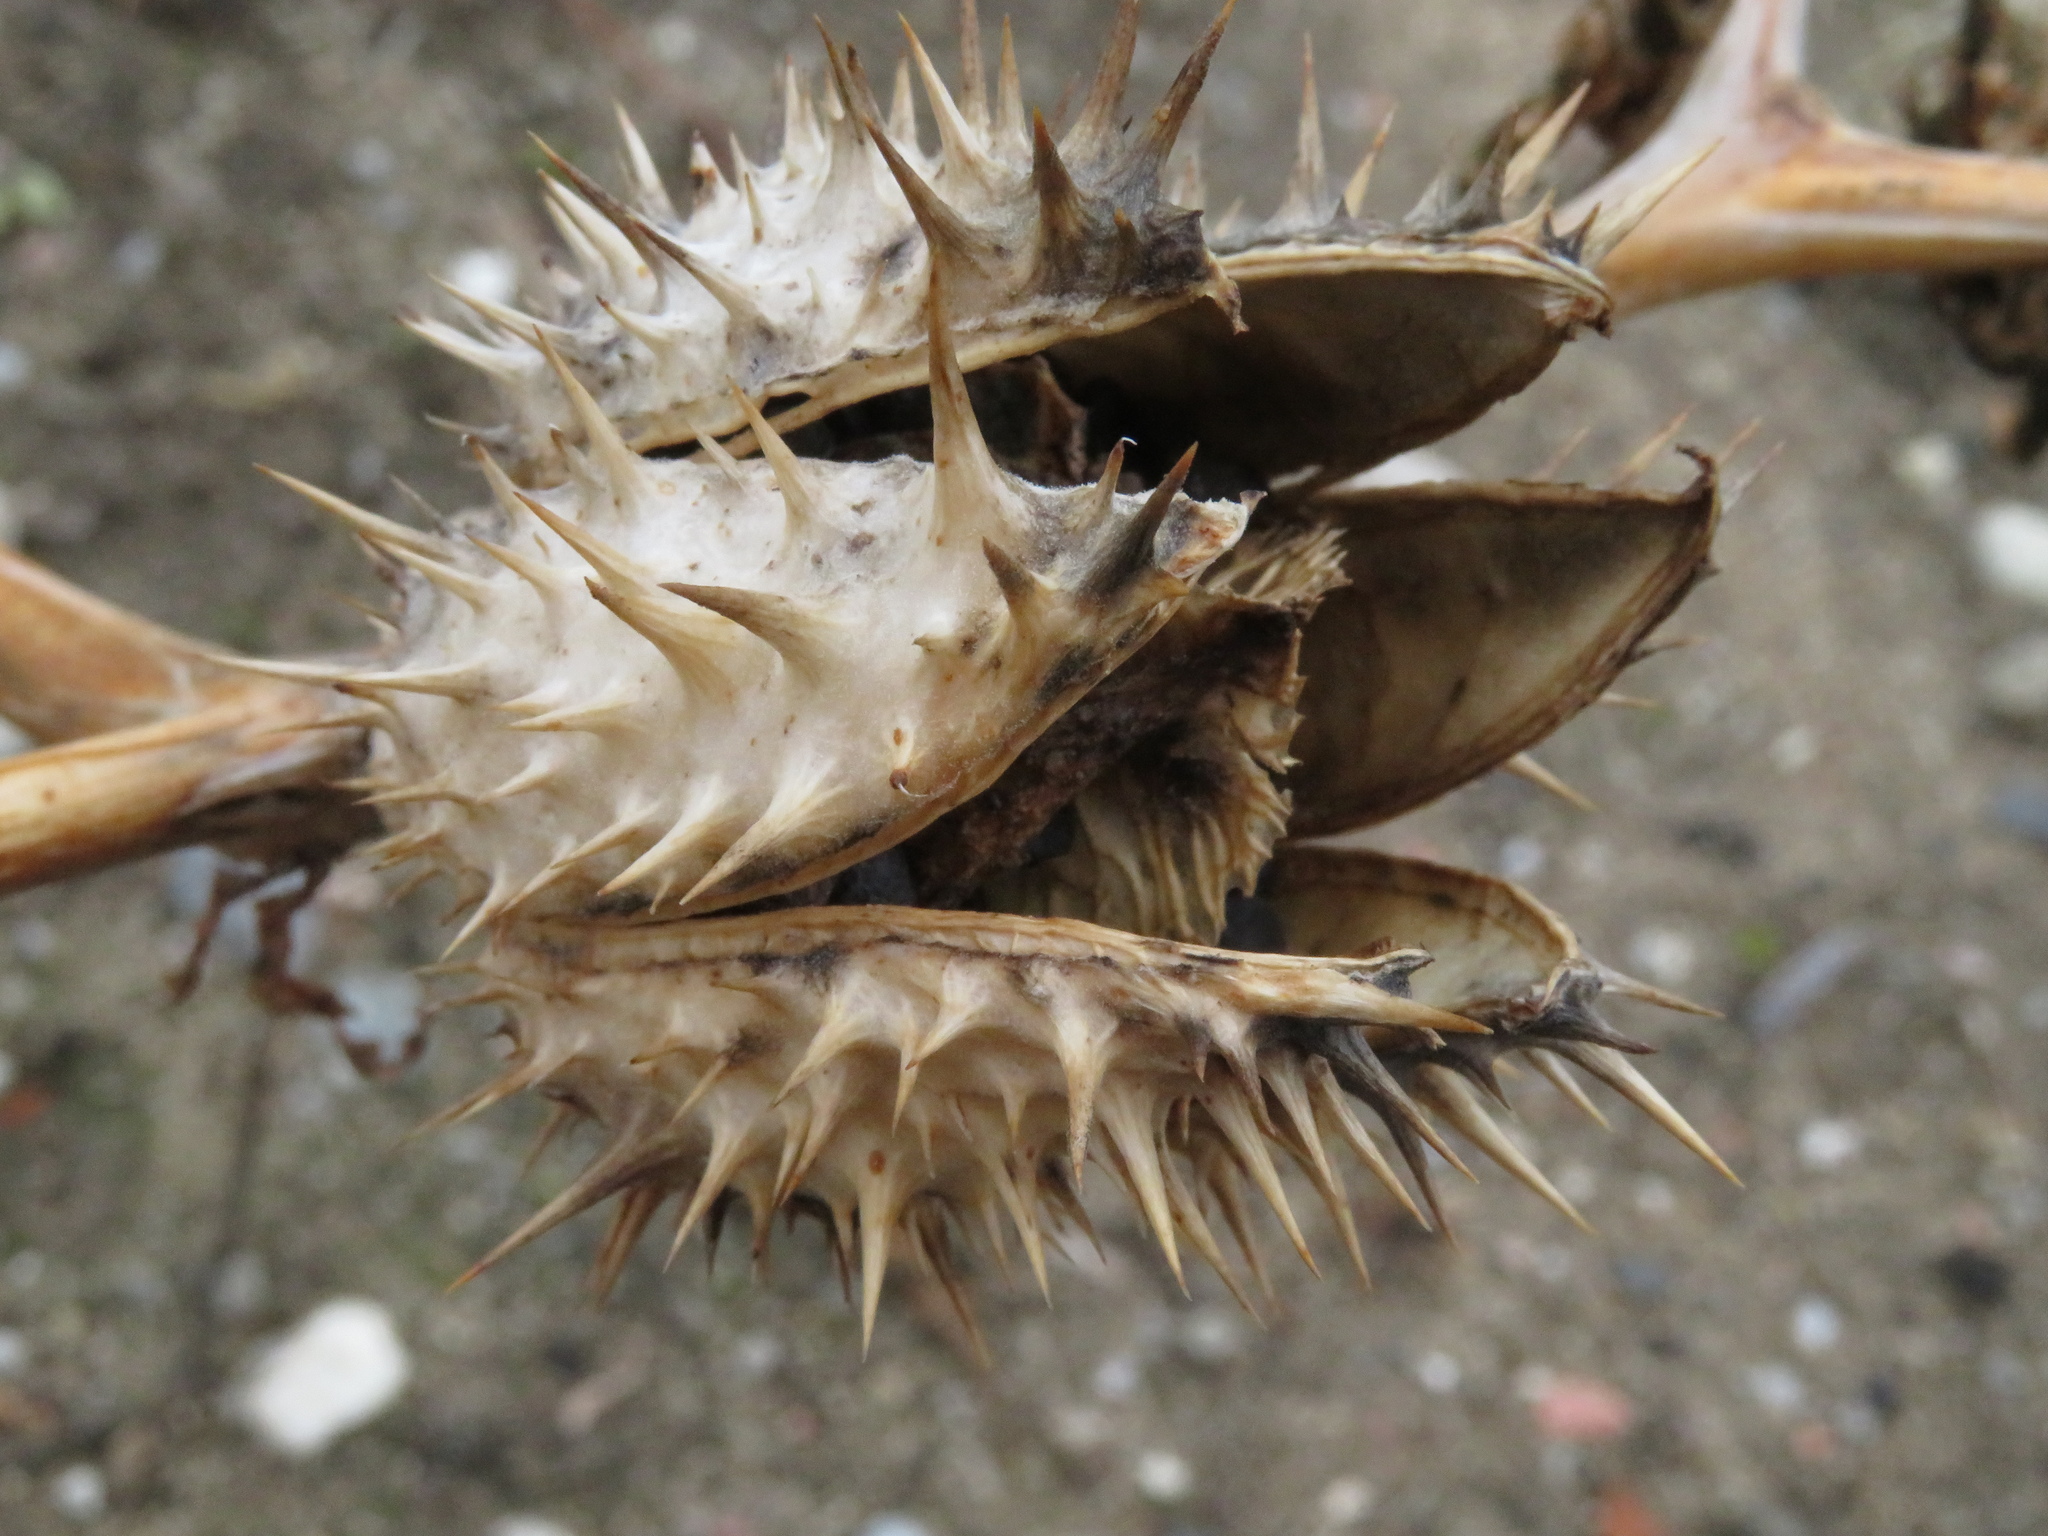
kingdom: Plantae
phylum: Tracheophyta
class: Magnoliopsida
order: Solanales
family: Solanaceae
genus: Datura
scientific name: Datura stramonium
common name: Thorn-apple
